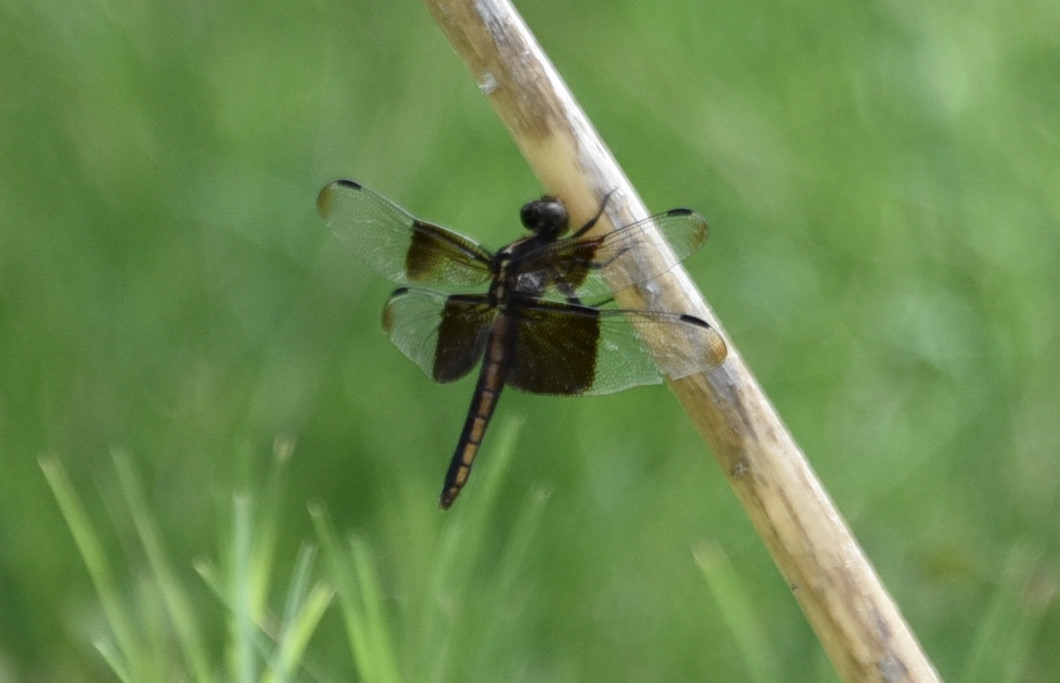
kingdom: Animalia
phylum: Arthropoda
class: Insecta
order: Odonata
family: Libellulidae
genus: Libellula
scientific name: Libellula luctuosa
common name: Widow skimmer
